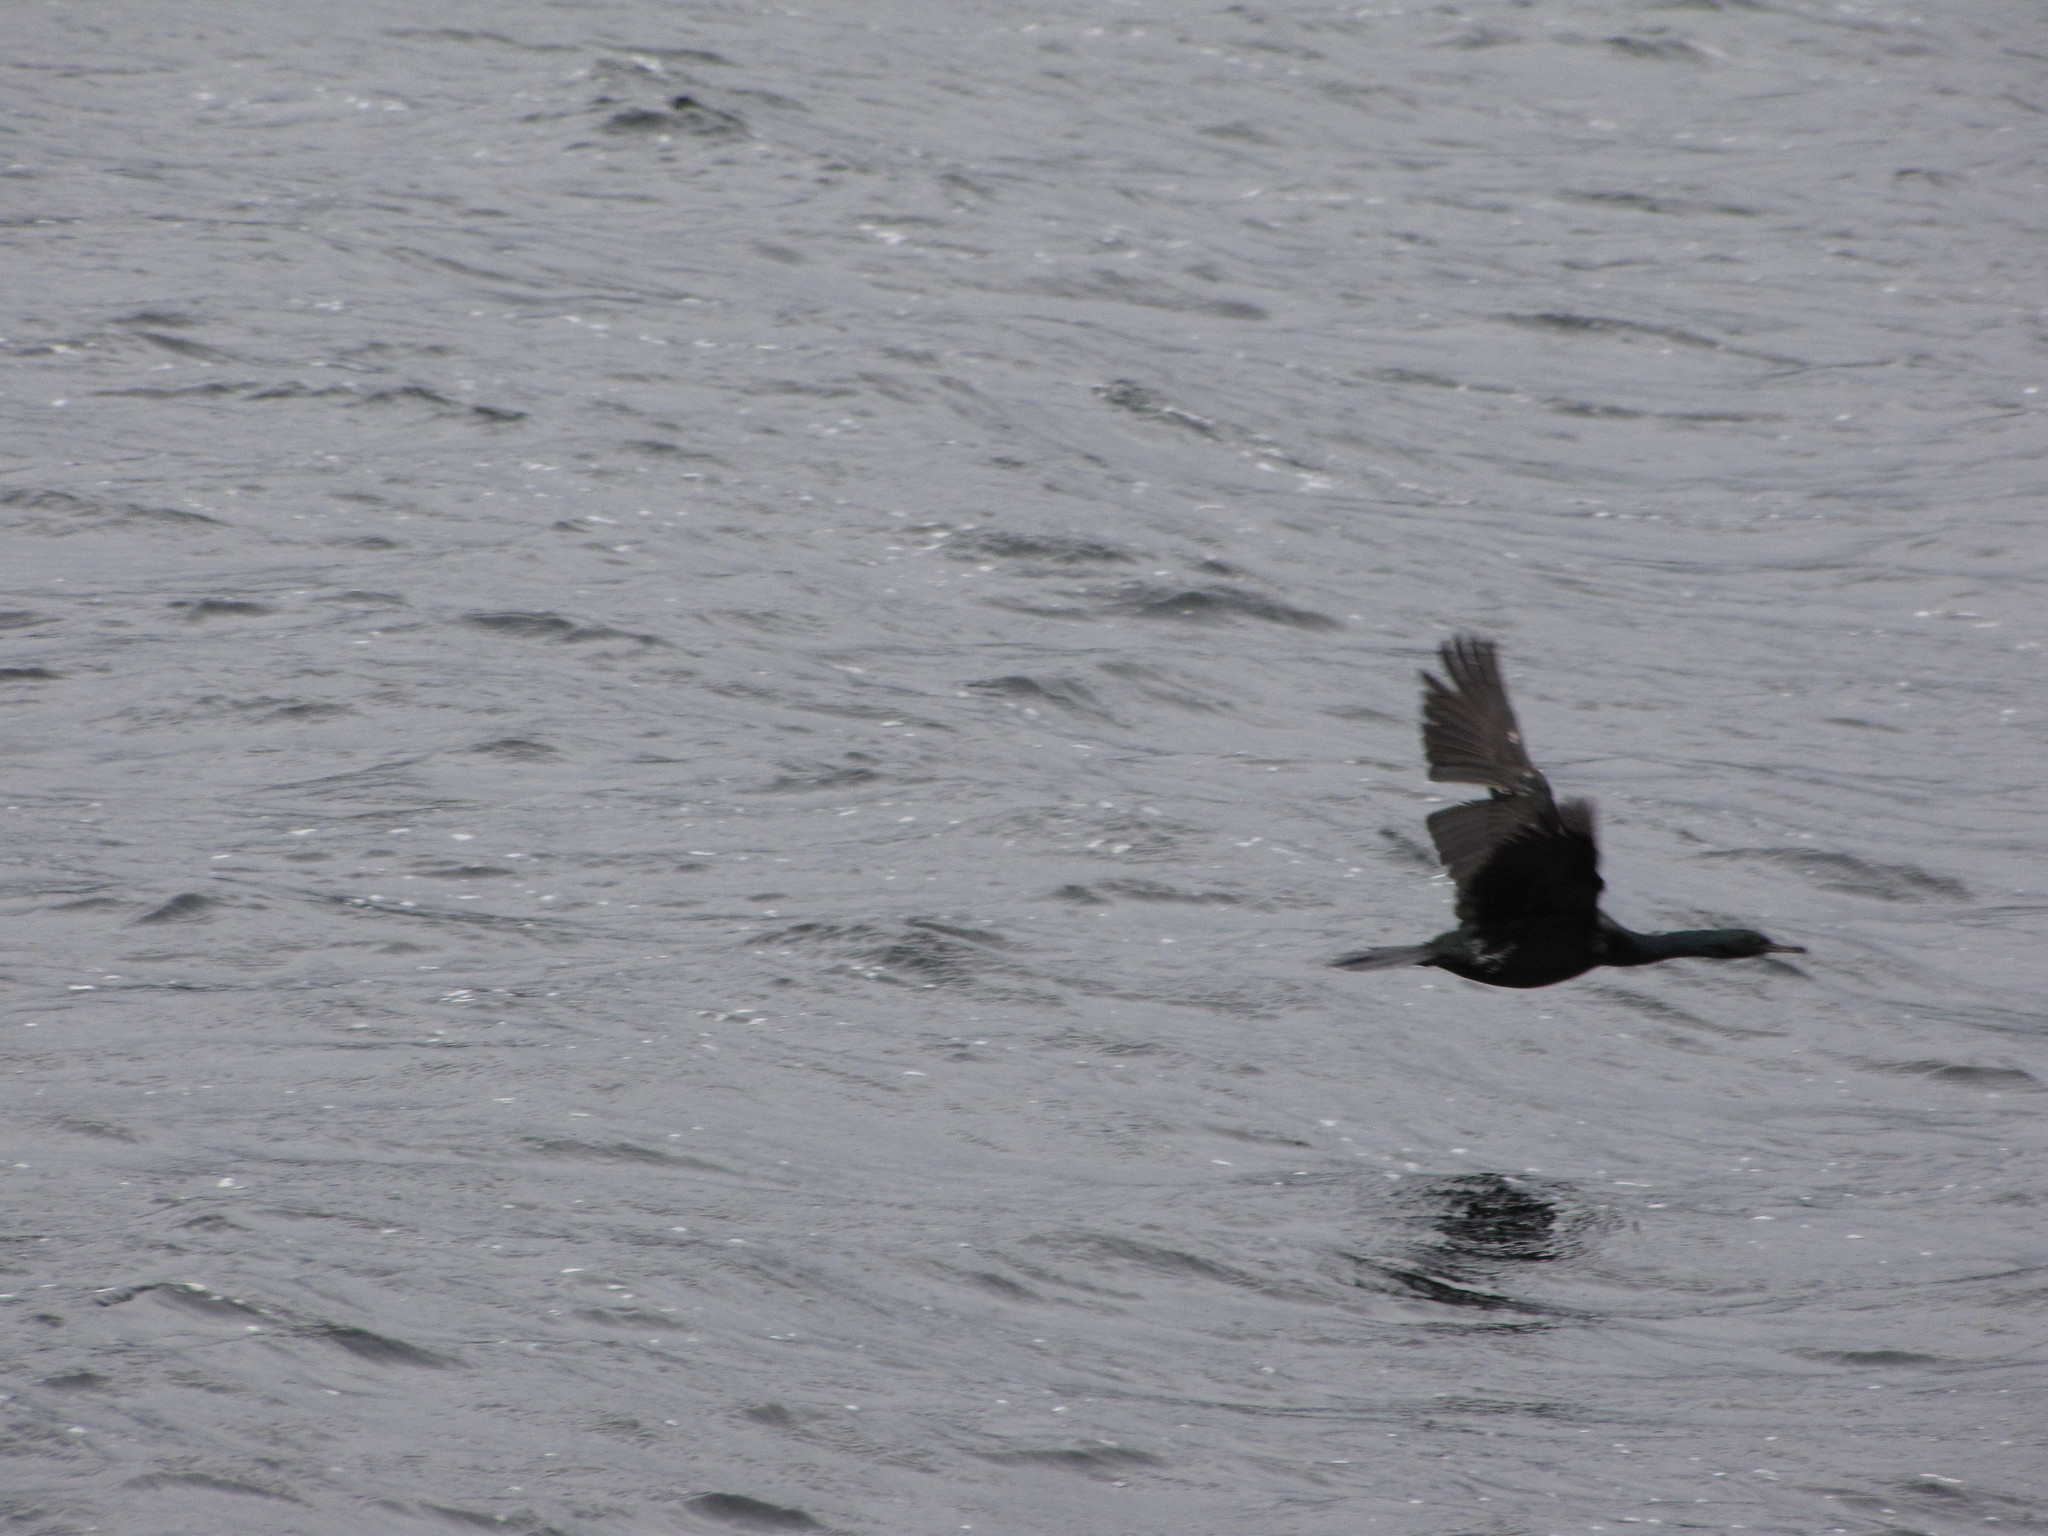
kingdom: Animalia
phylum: Chordata
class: Aves
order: Suliformes
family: Phalacrocoracidae
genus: Phalacrocorax
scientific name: Phalacrocorax pelagicus
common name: Pelagic cormorant
